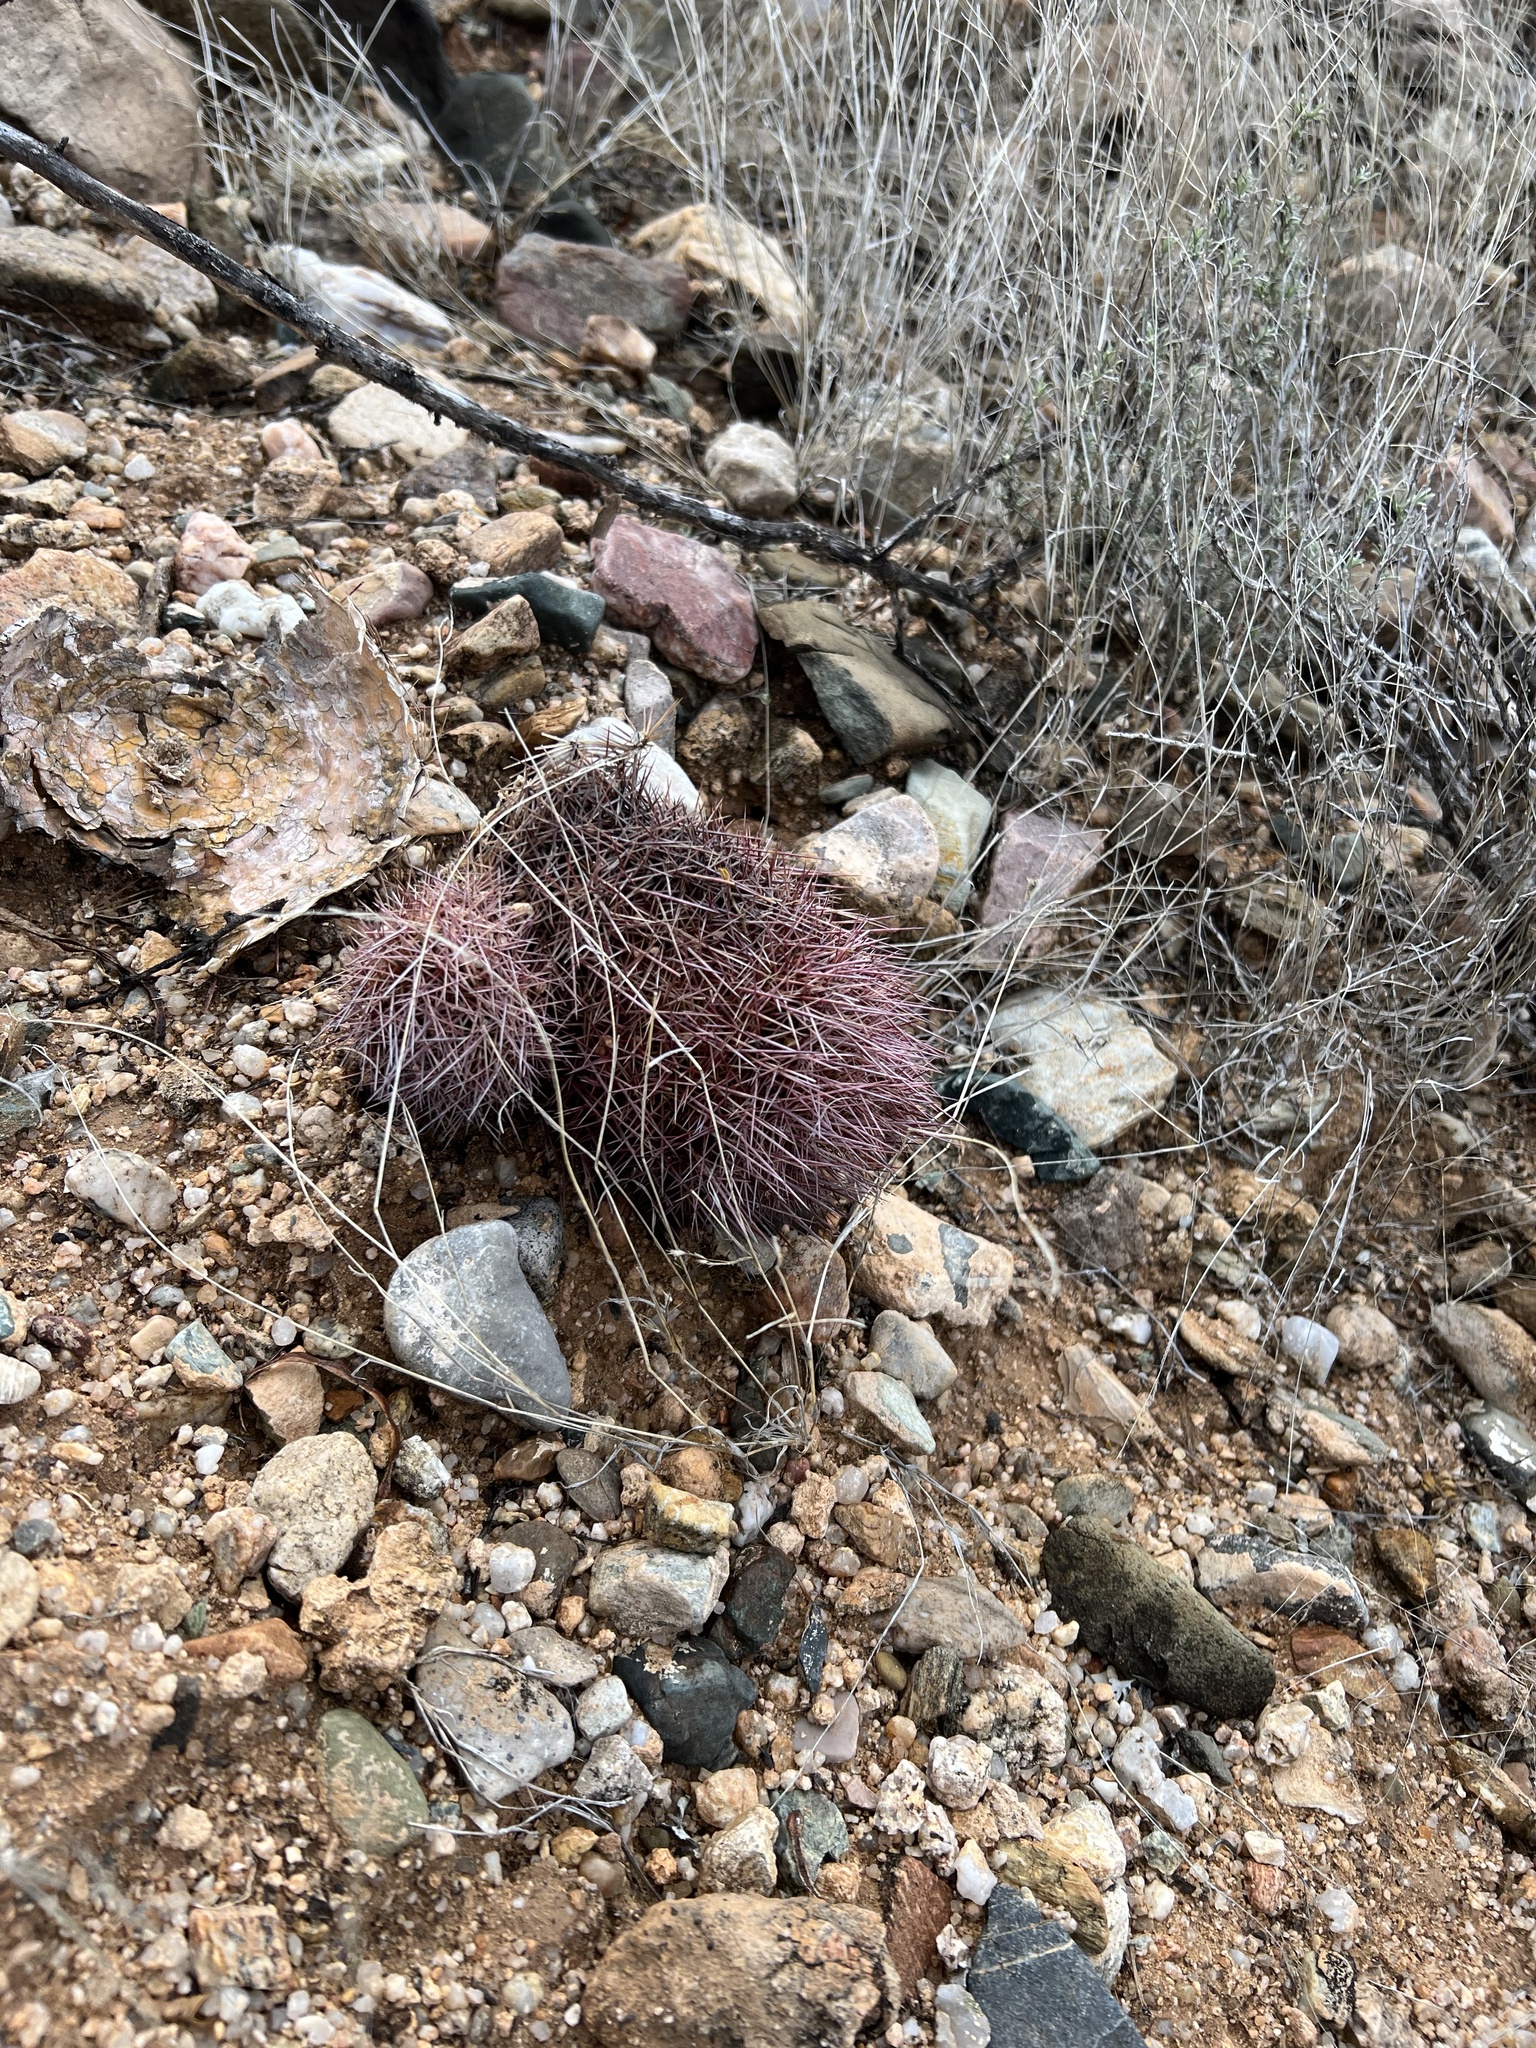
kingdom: Plantae
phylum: Tracheophyta
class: Magnoliopsida
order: Caryophyllales
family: Cactaceae
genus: Sclerocactus
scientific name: Sclerocactus johnsonii
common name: Eight-spine fishhook cactus
